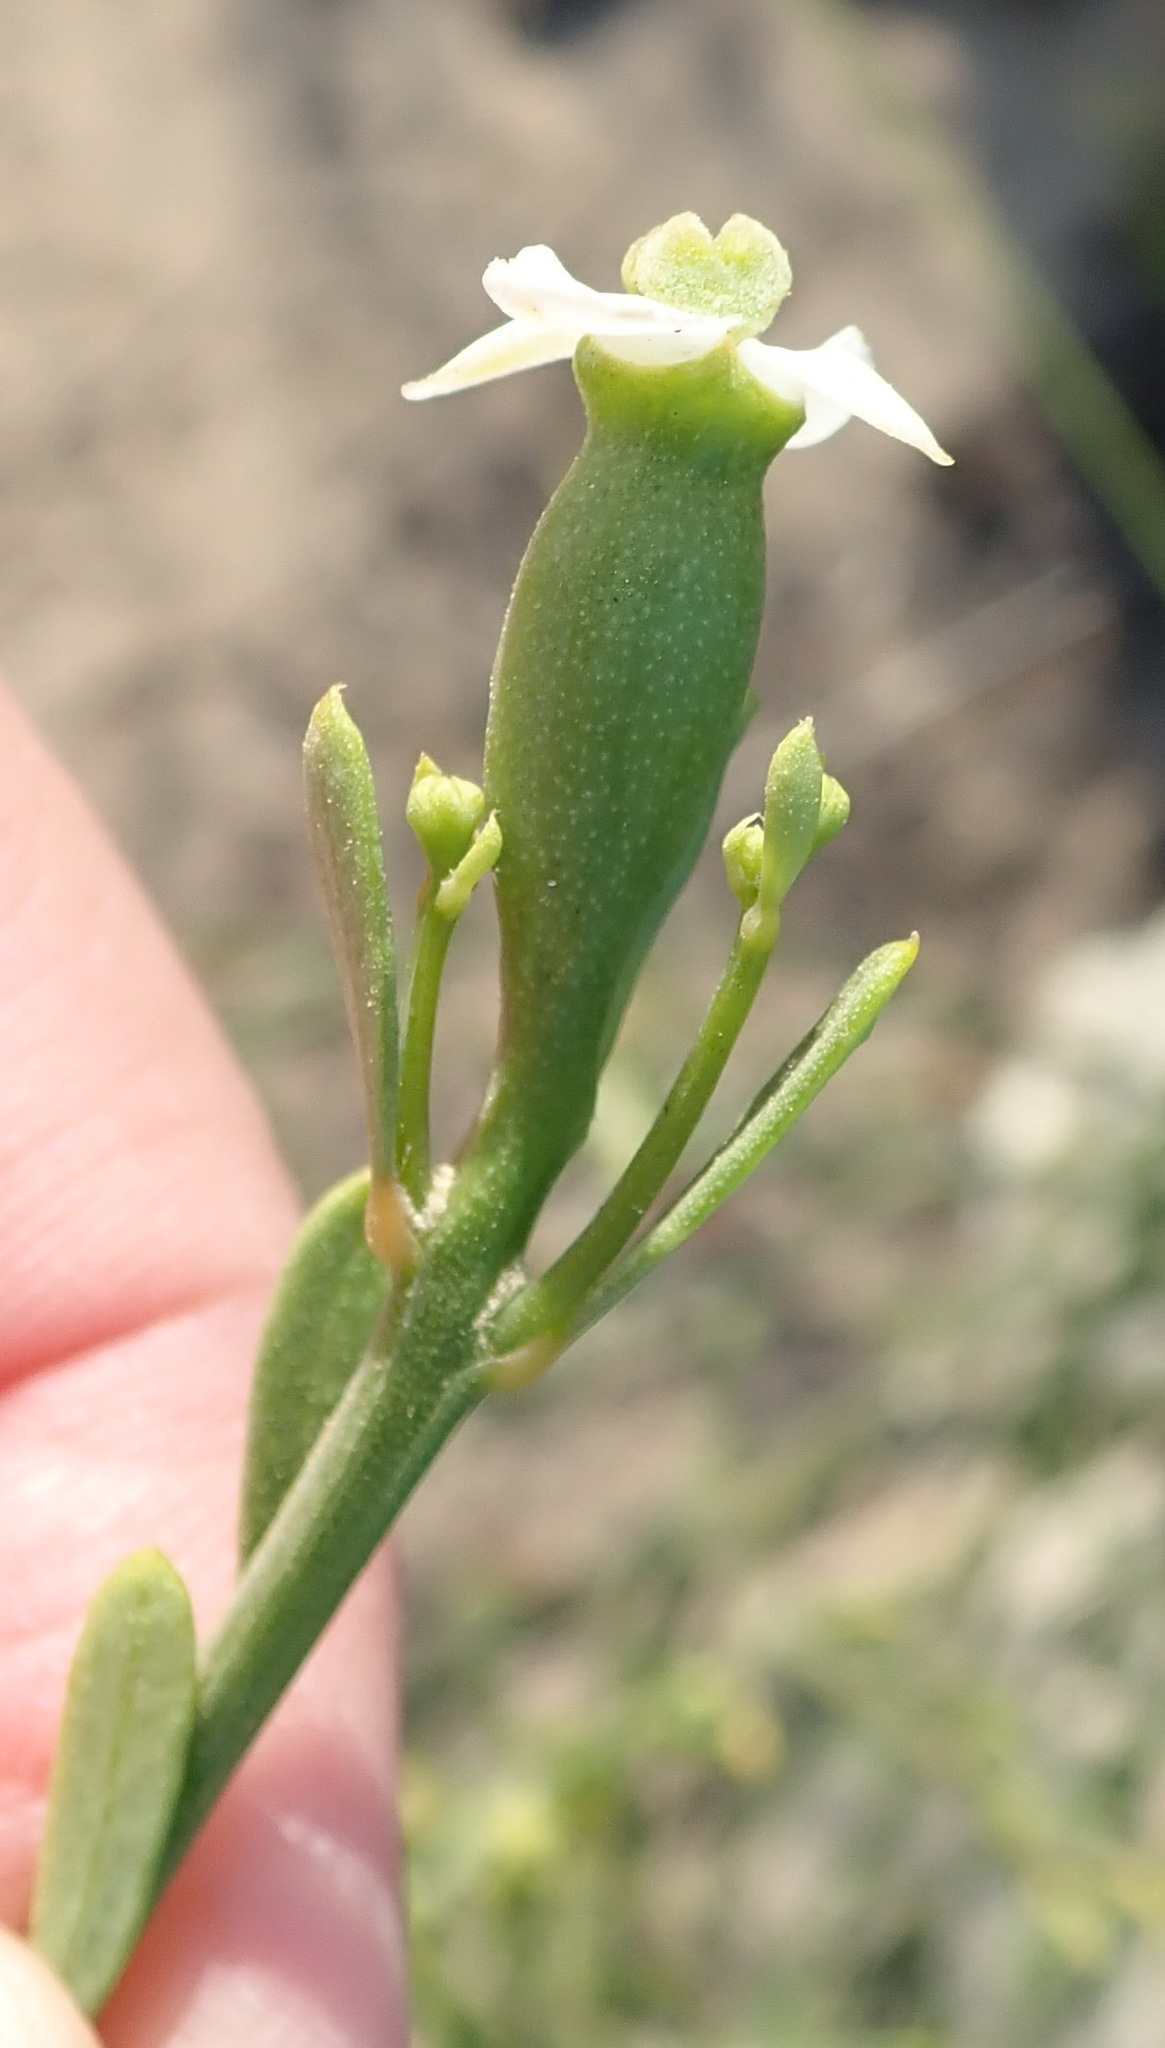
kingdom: Plantae
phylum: Tracheophyta
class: Magnoliopsida
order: Solanales
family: Montiniaceae
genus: Montinia
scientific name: Montinia caryophyllacea
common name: Wild clove-bush
